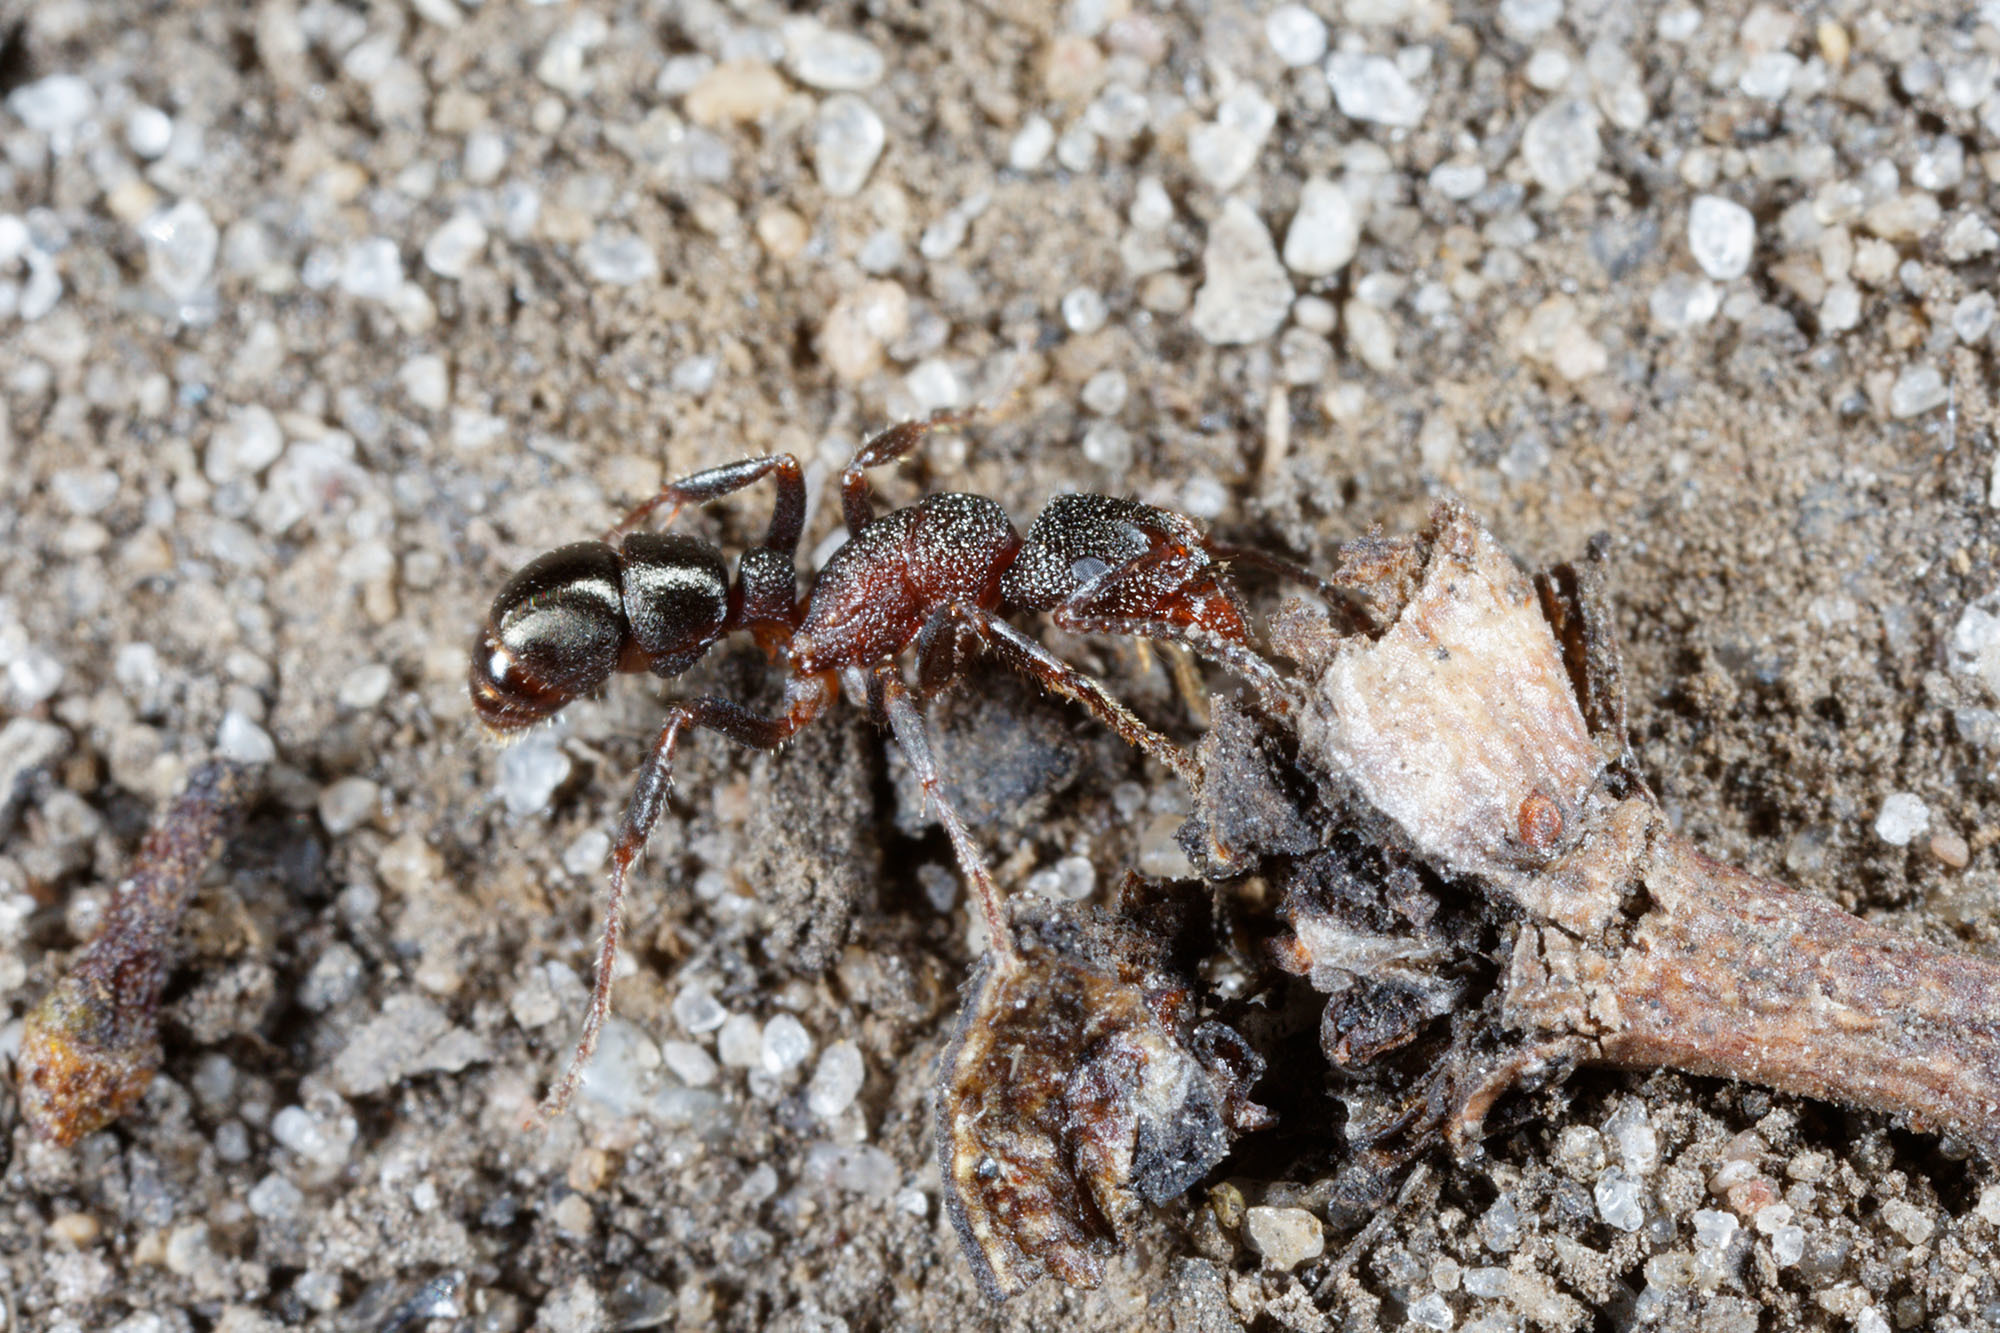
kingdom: Animalia
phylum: Arthropoda
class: Insecta
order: Hymenoptera
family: Formicidae
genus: Rhytidoponera
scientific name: Rhytidoponera tasmaniensis
